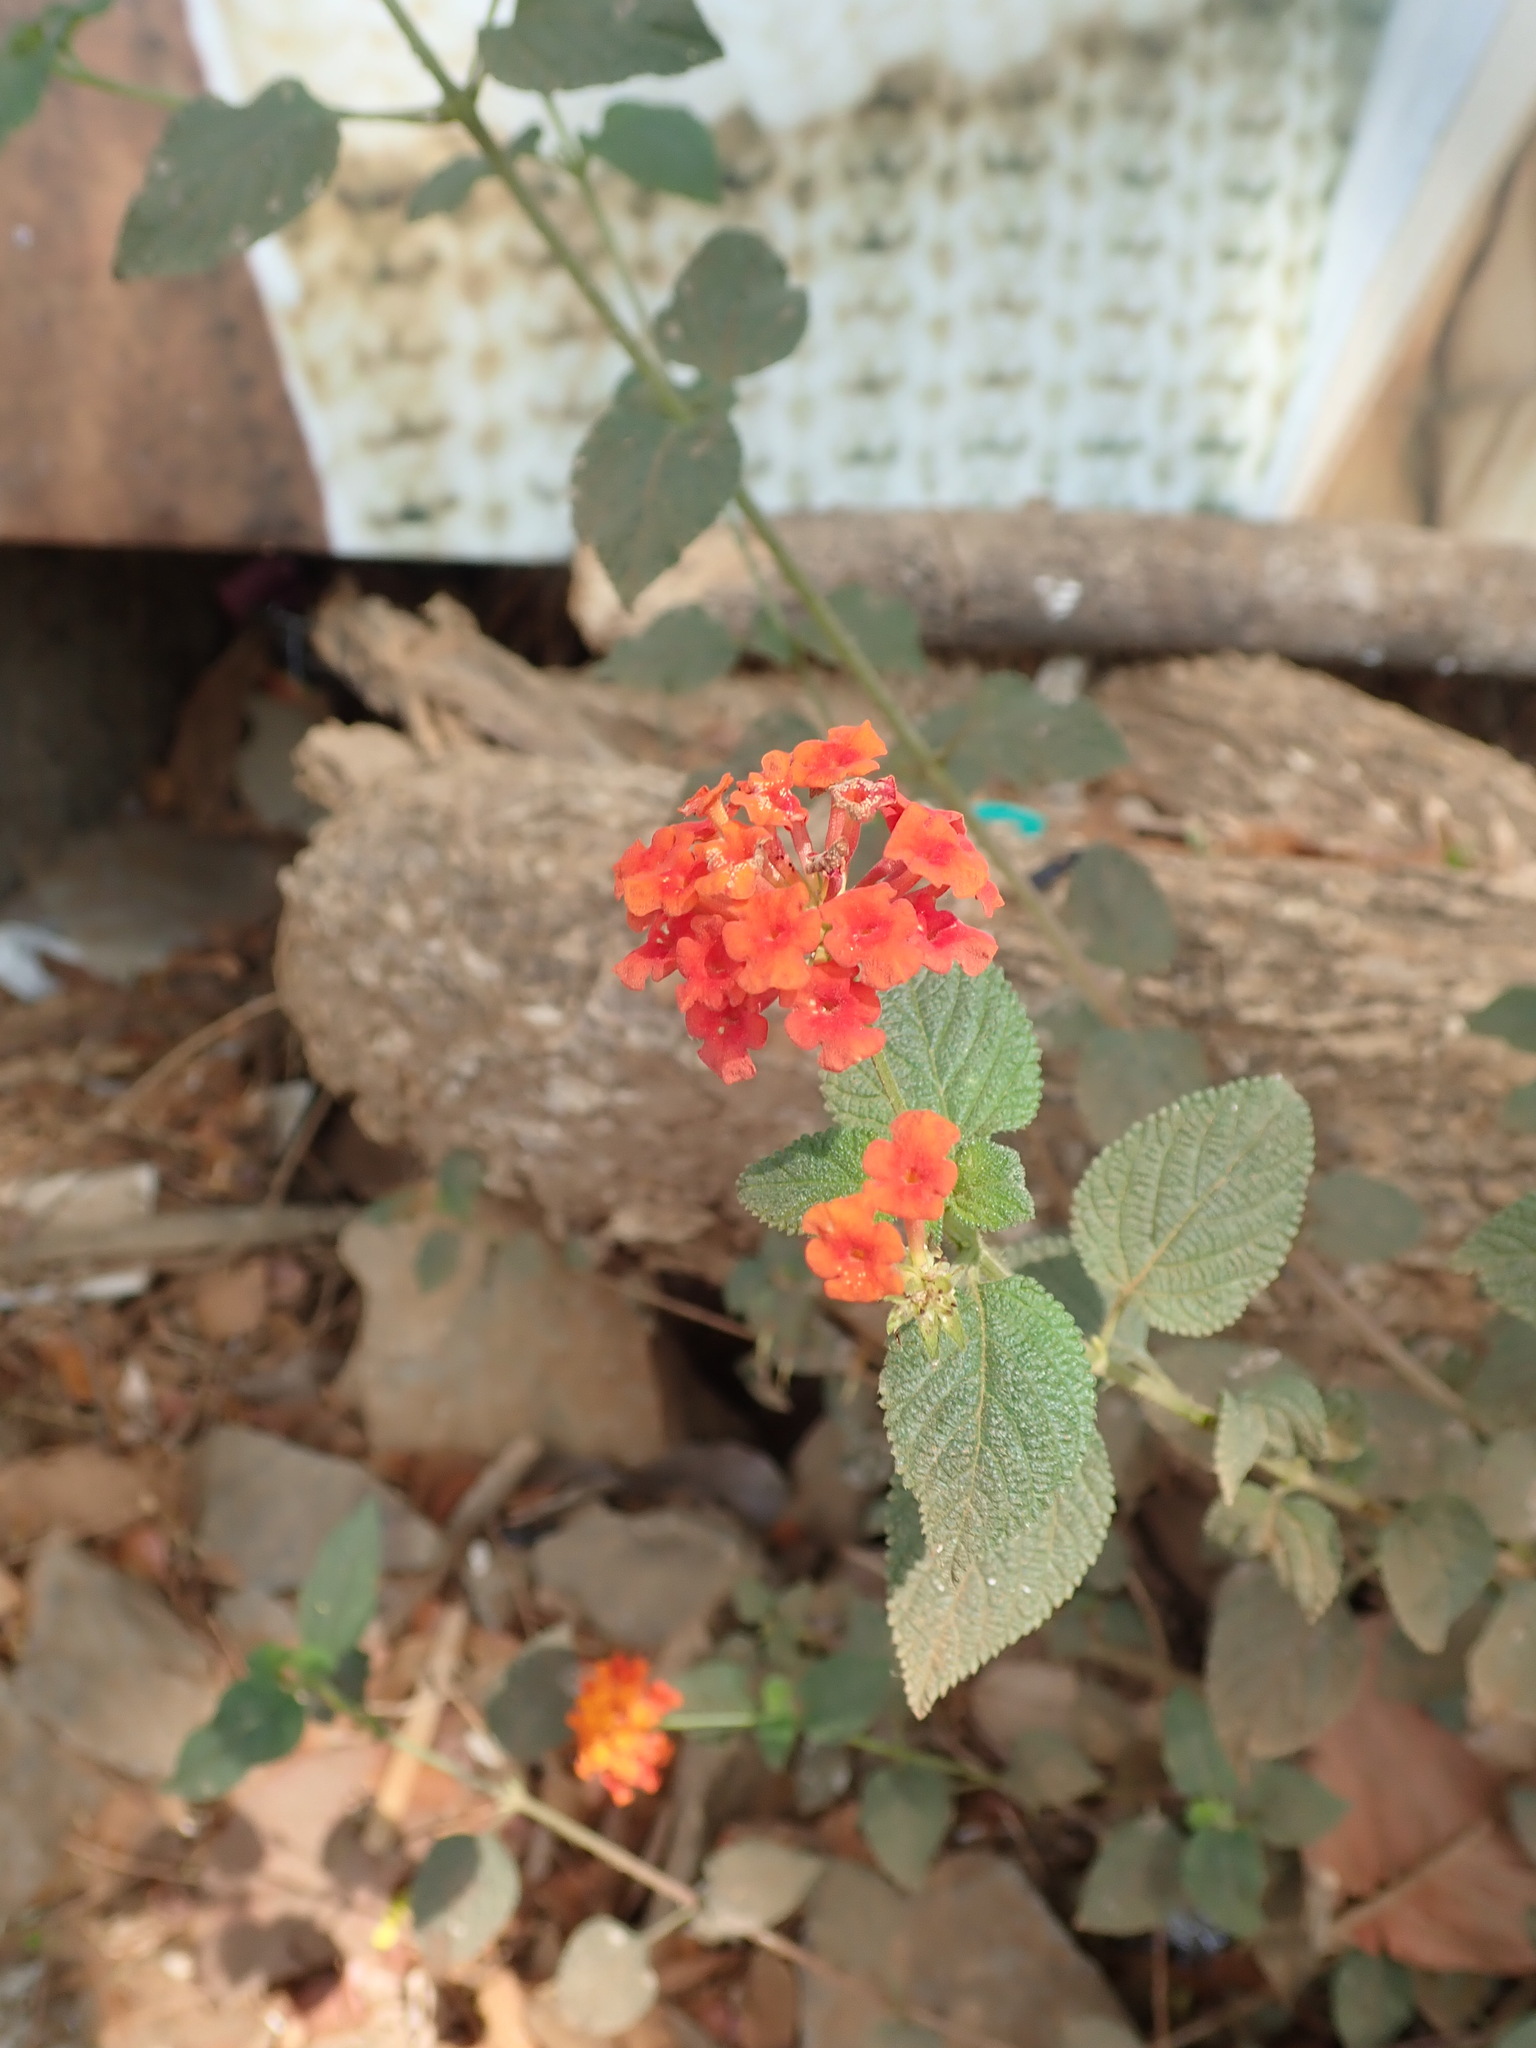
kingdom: Plantae
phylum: Tracheophyta
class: Magnoliopsida
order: Lamiales
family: Verbenaceae
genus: Lantana
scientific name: Lantana camara
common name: Lantana
